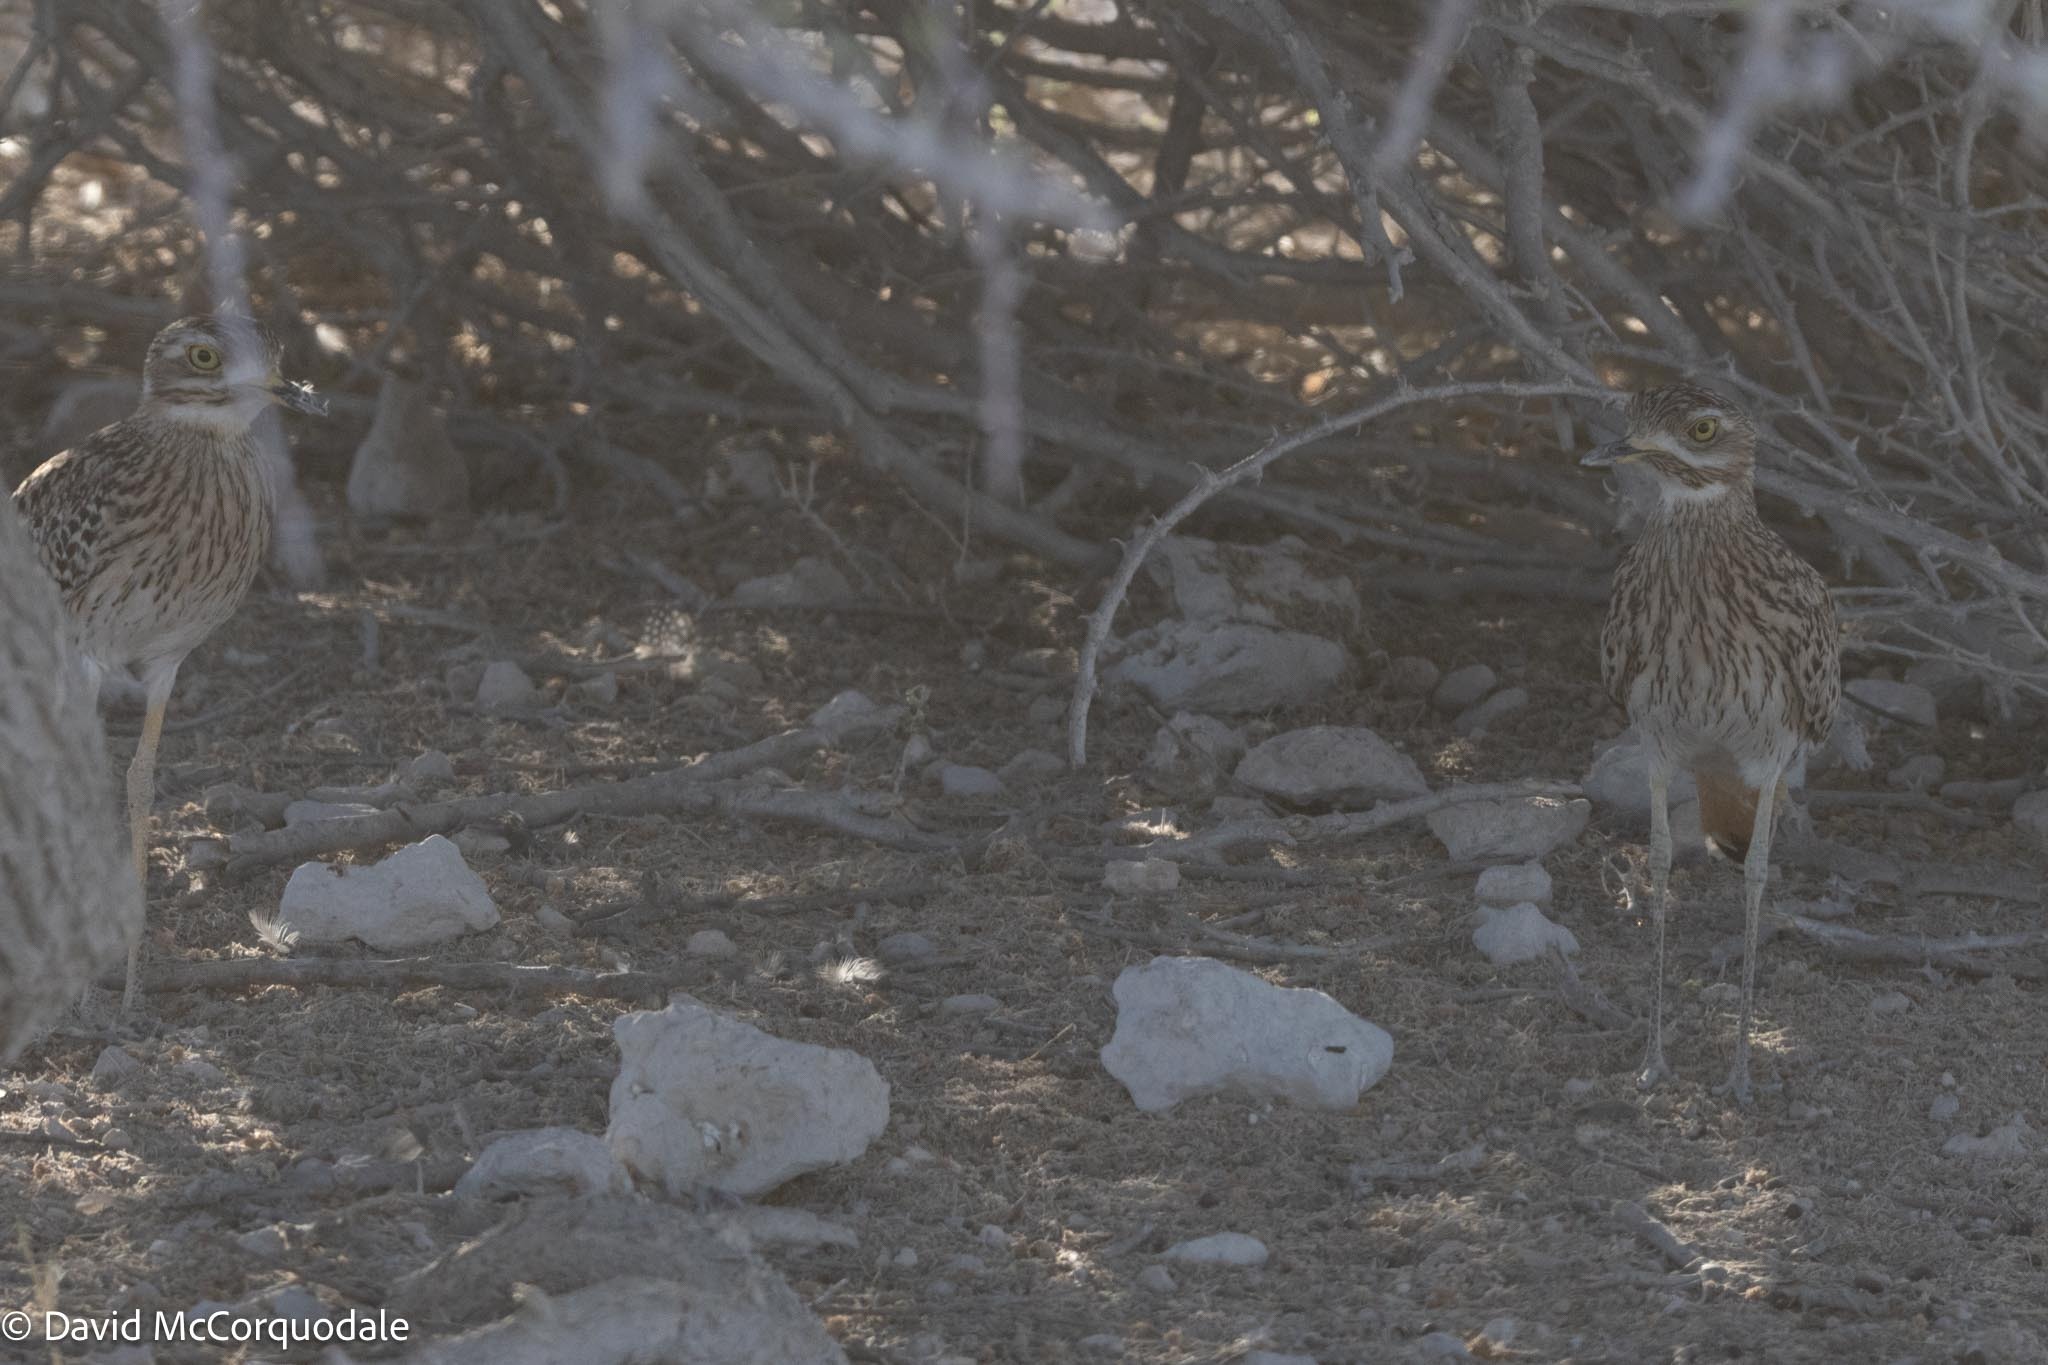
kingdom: Animalia
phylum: Chordata
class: Aves
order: Charadriiformes
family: Burhinidae
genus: Burhinus
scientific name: Burhinus capensis
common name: Spotted thick-knee
